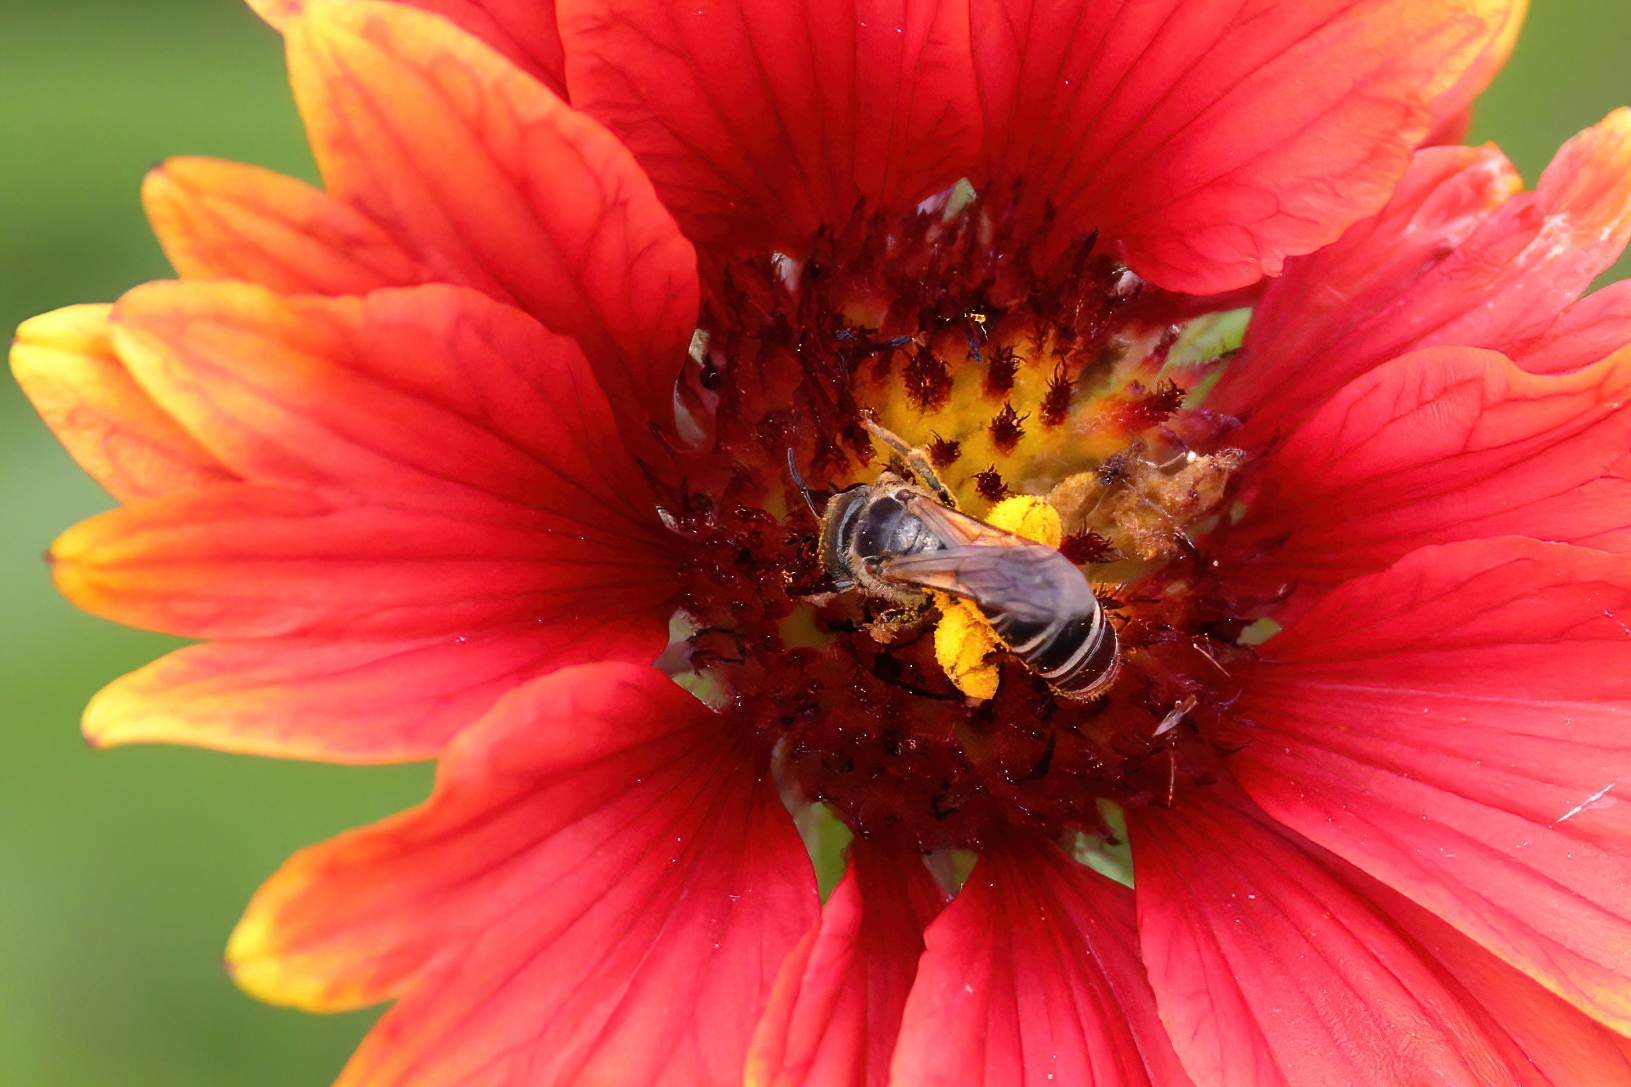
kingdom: Animalia
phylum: Arthropoda
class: Insecta
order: Hymenoptera
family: Halictidae
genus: Halictus
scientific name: Halictus poeyi
